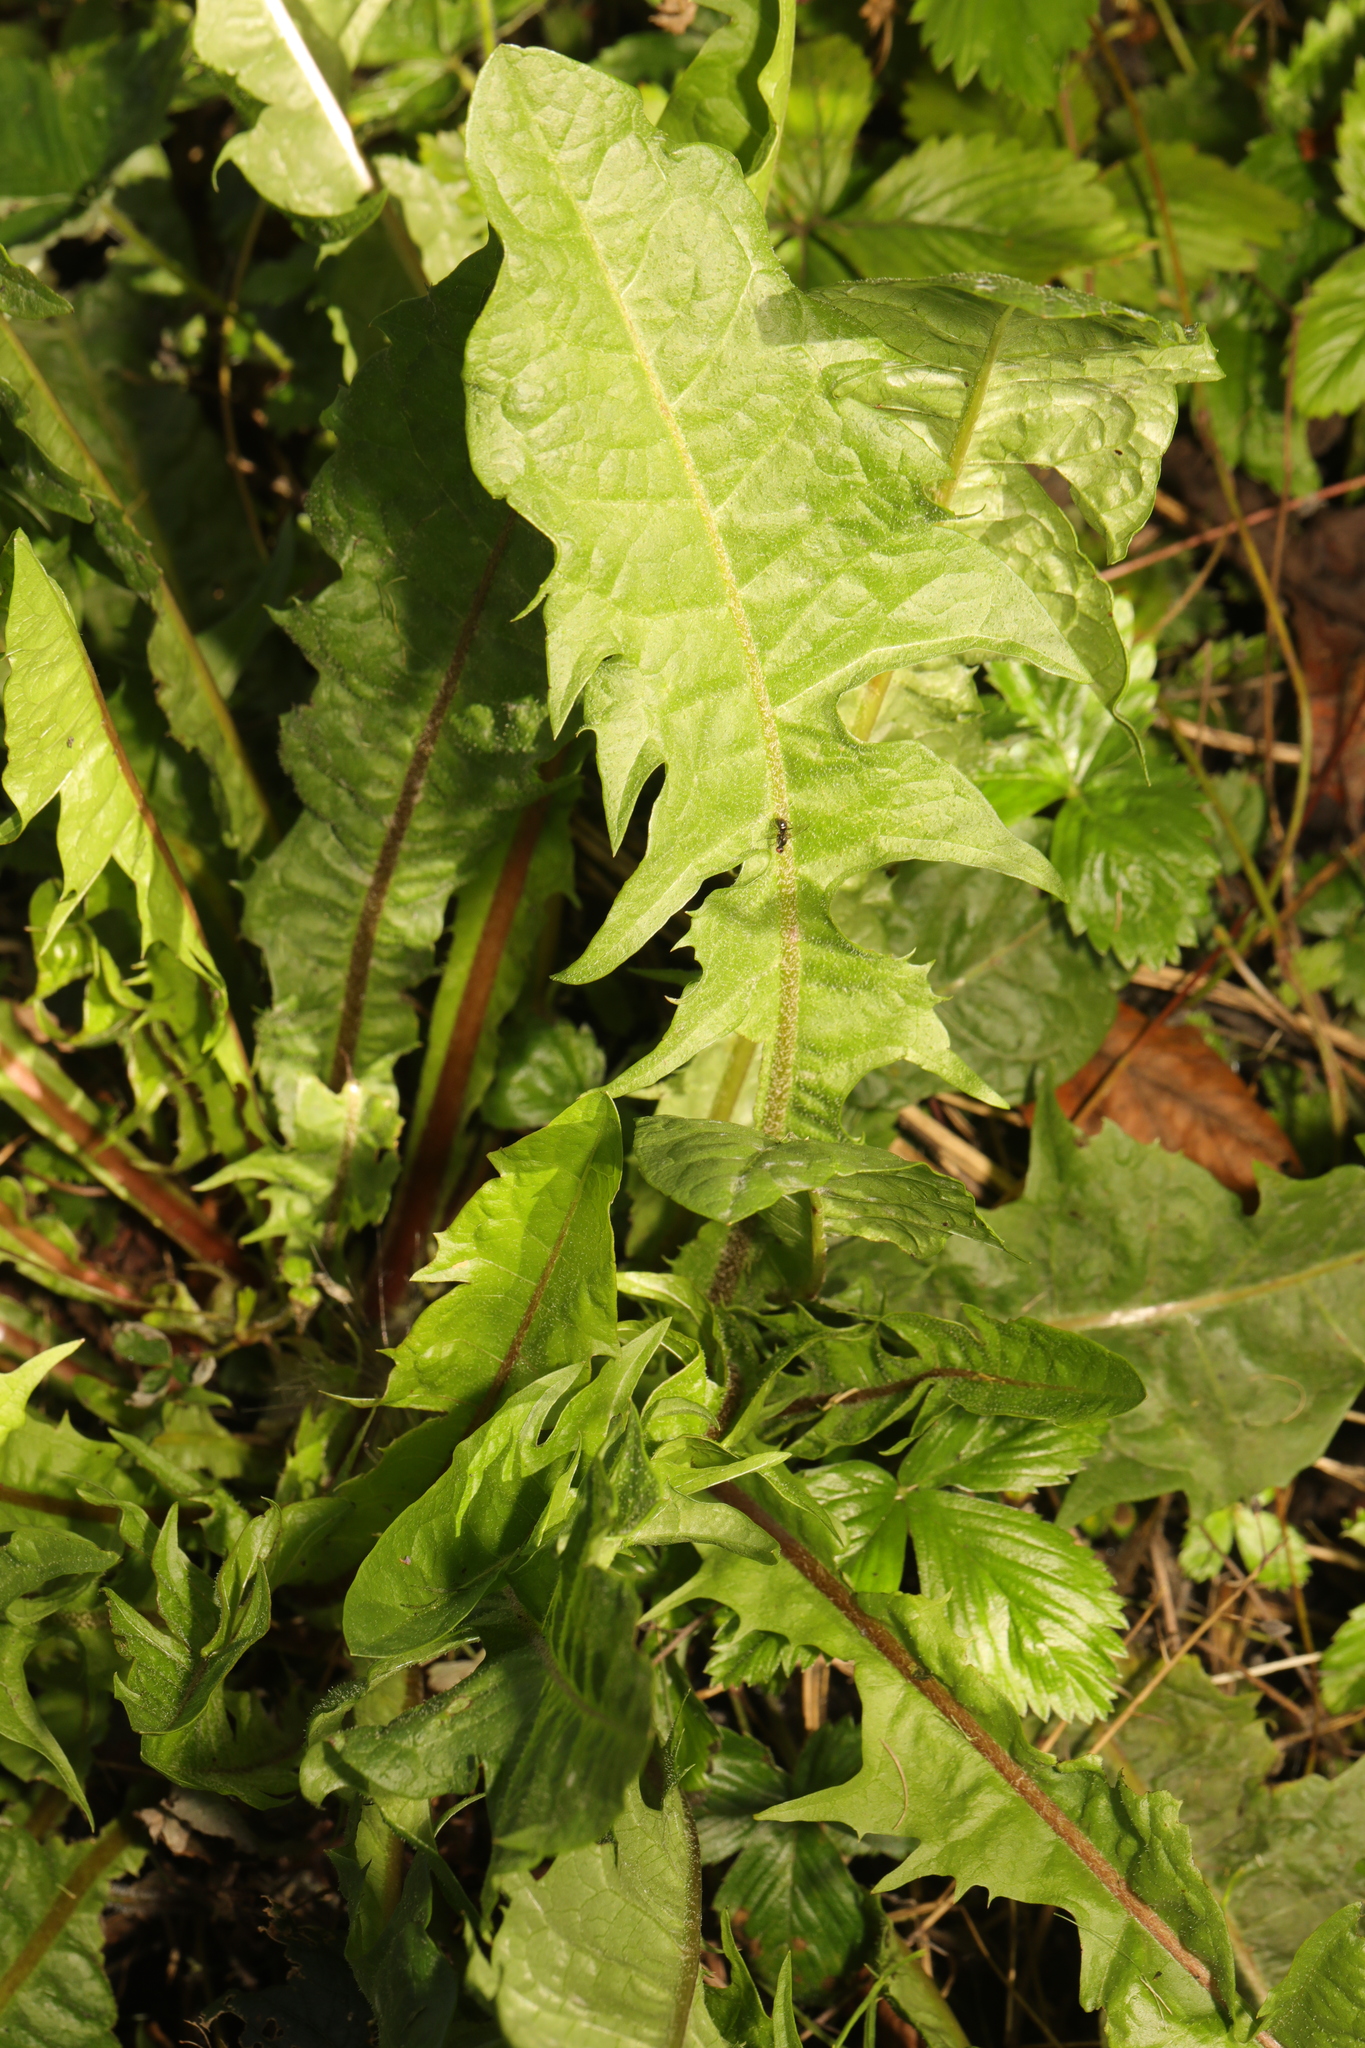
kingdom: Plantae
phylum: Tracheophyta
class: Magnoliopsida
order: Asterales
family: Asteraceae
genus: Taraxacum
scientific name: Taraxacum officinale
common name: Common dandelion
